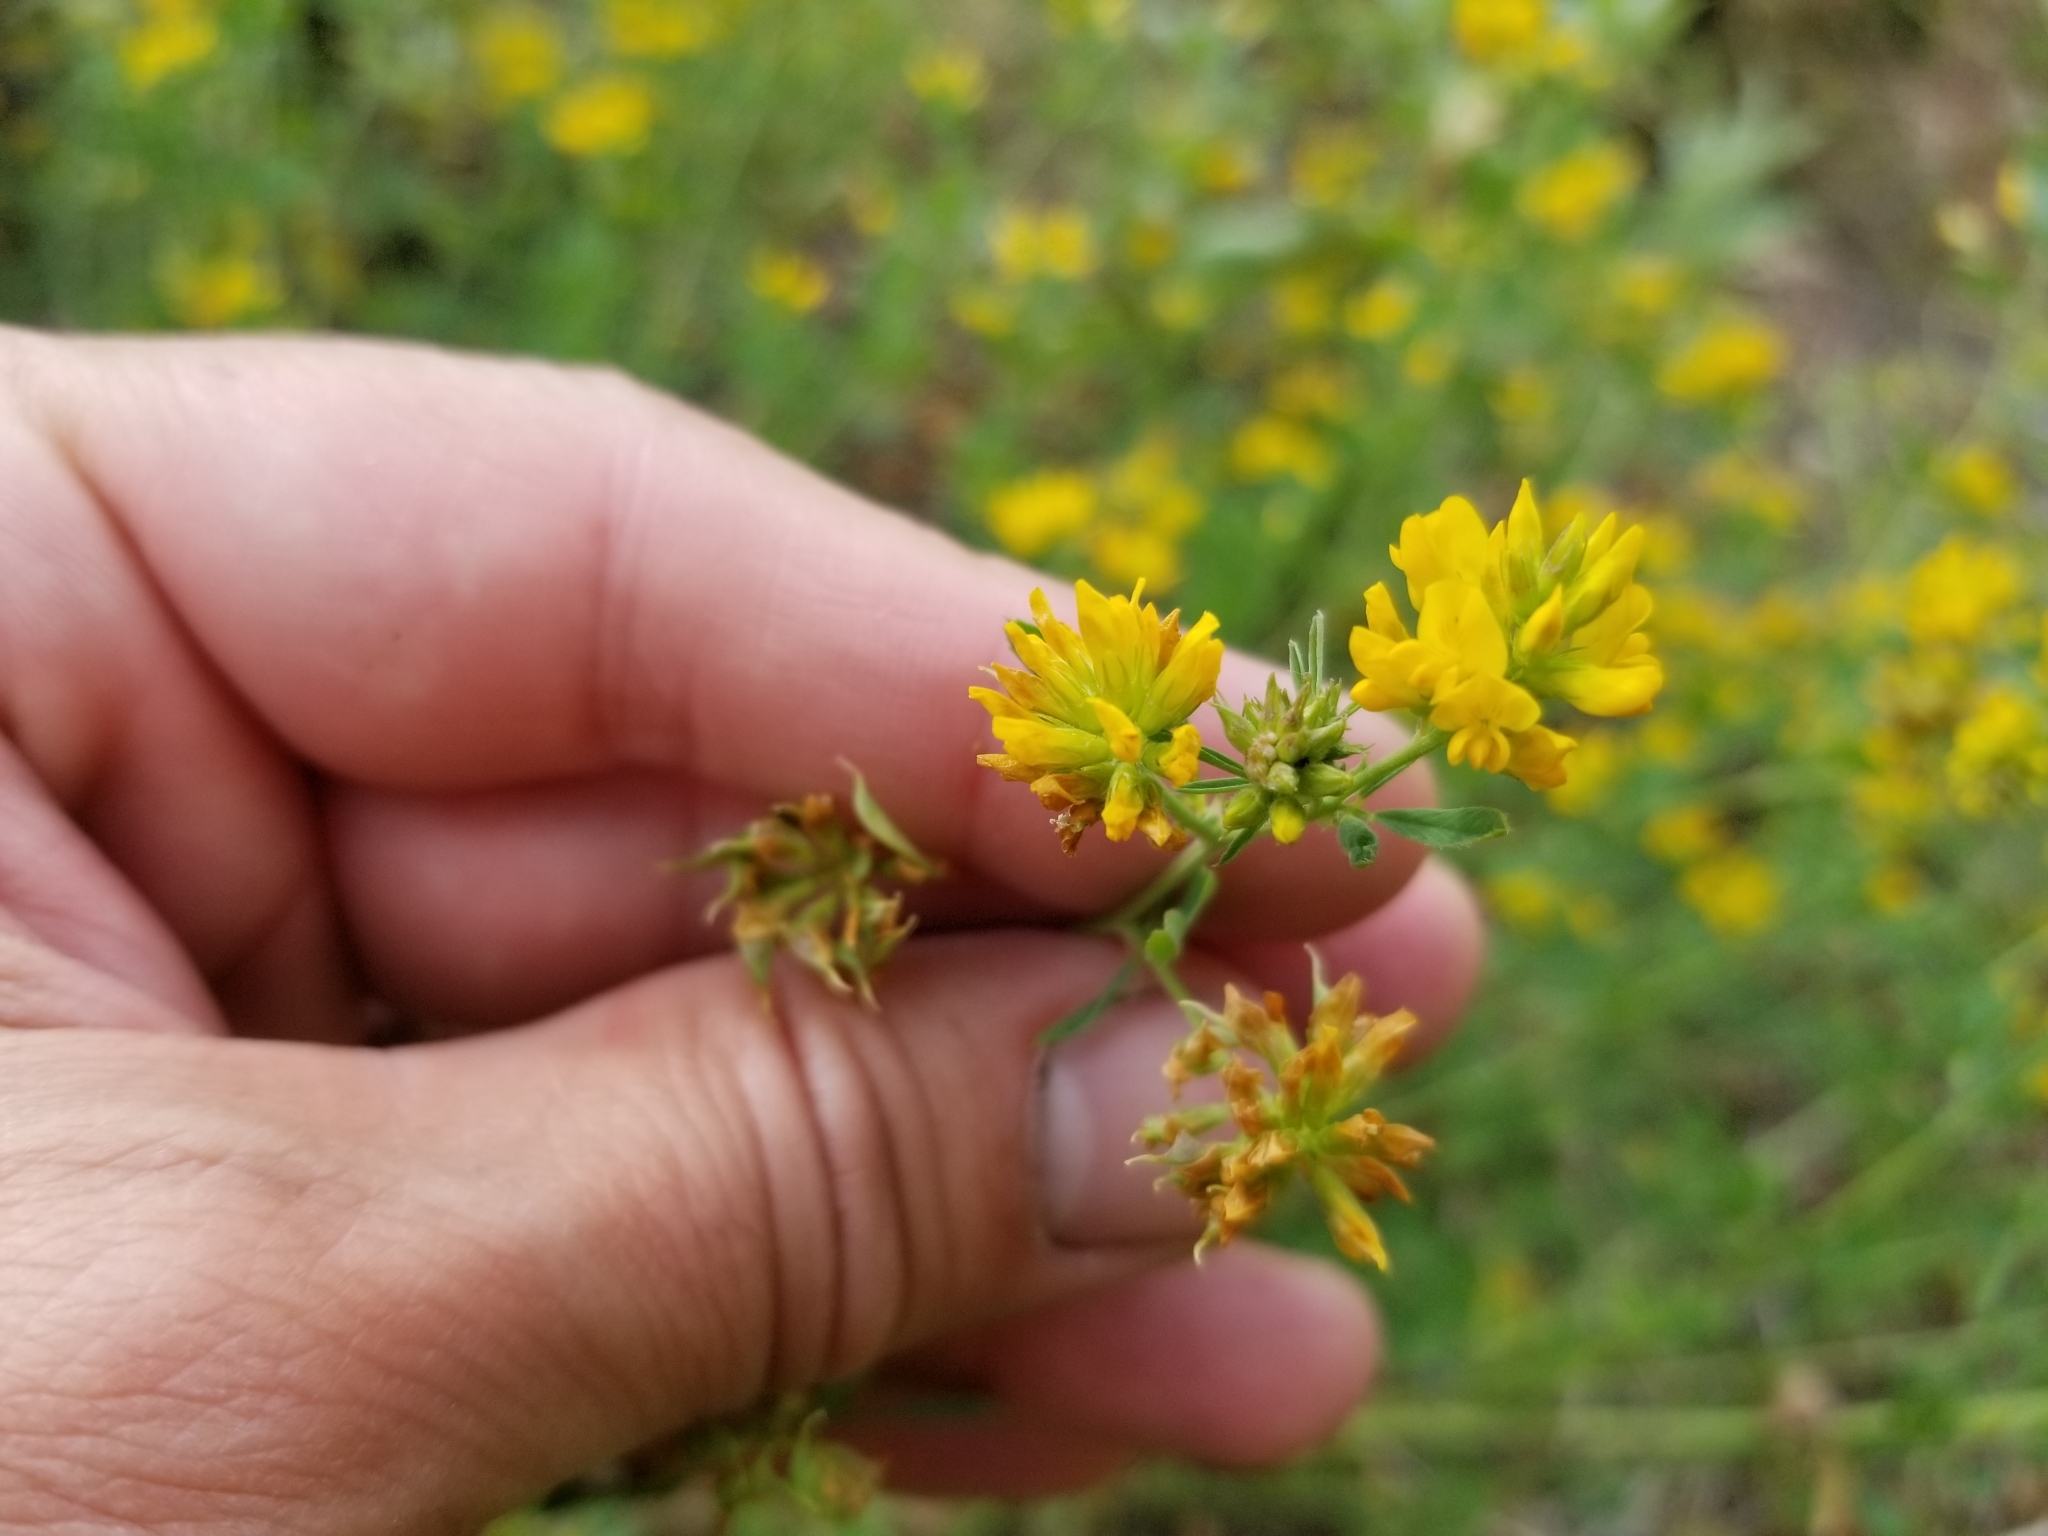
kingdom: Plantae
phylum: Tracheophyta
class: Magnoliopsida
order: Fabales
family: Fabaceae
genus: Medicago
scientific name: Medicago falcata
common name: Sickle medick
